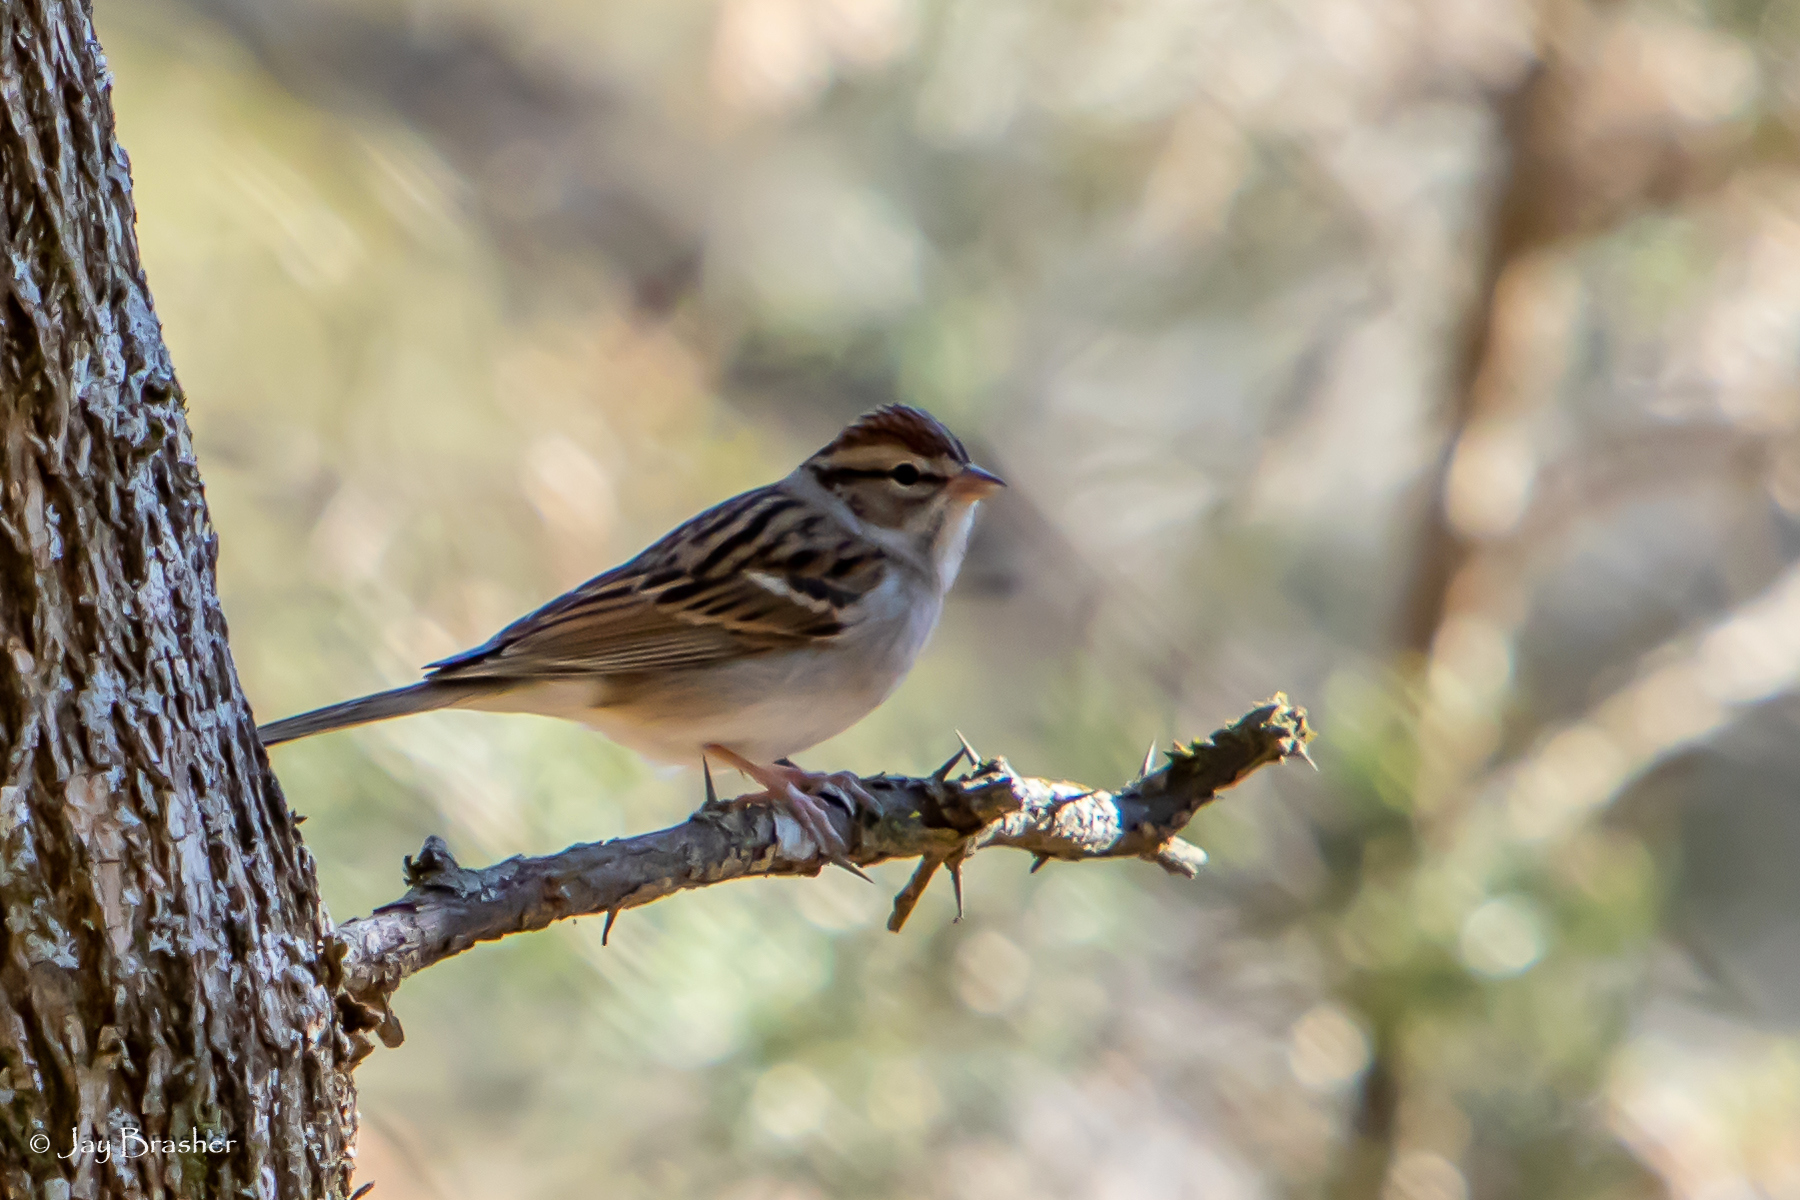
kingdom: Animalia
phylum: Chordata
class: Aves
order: Passeriformes
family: Passerellidae
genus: Spizella
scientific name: Spizella passerina
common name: Chipping sparrow
